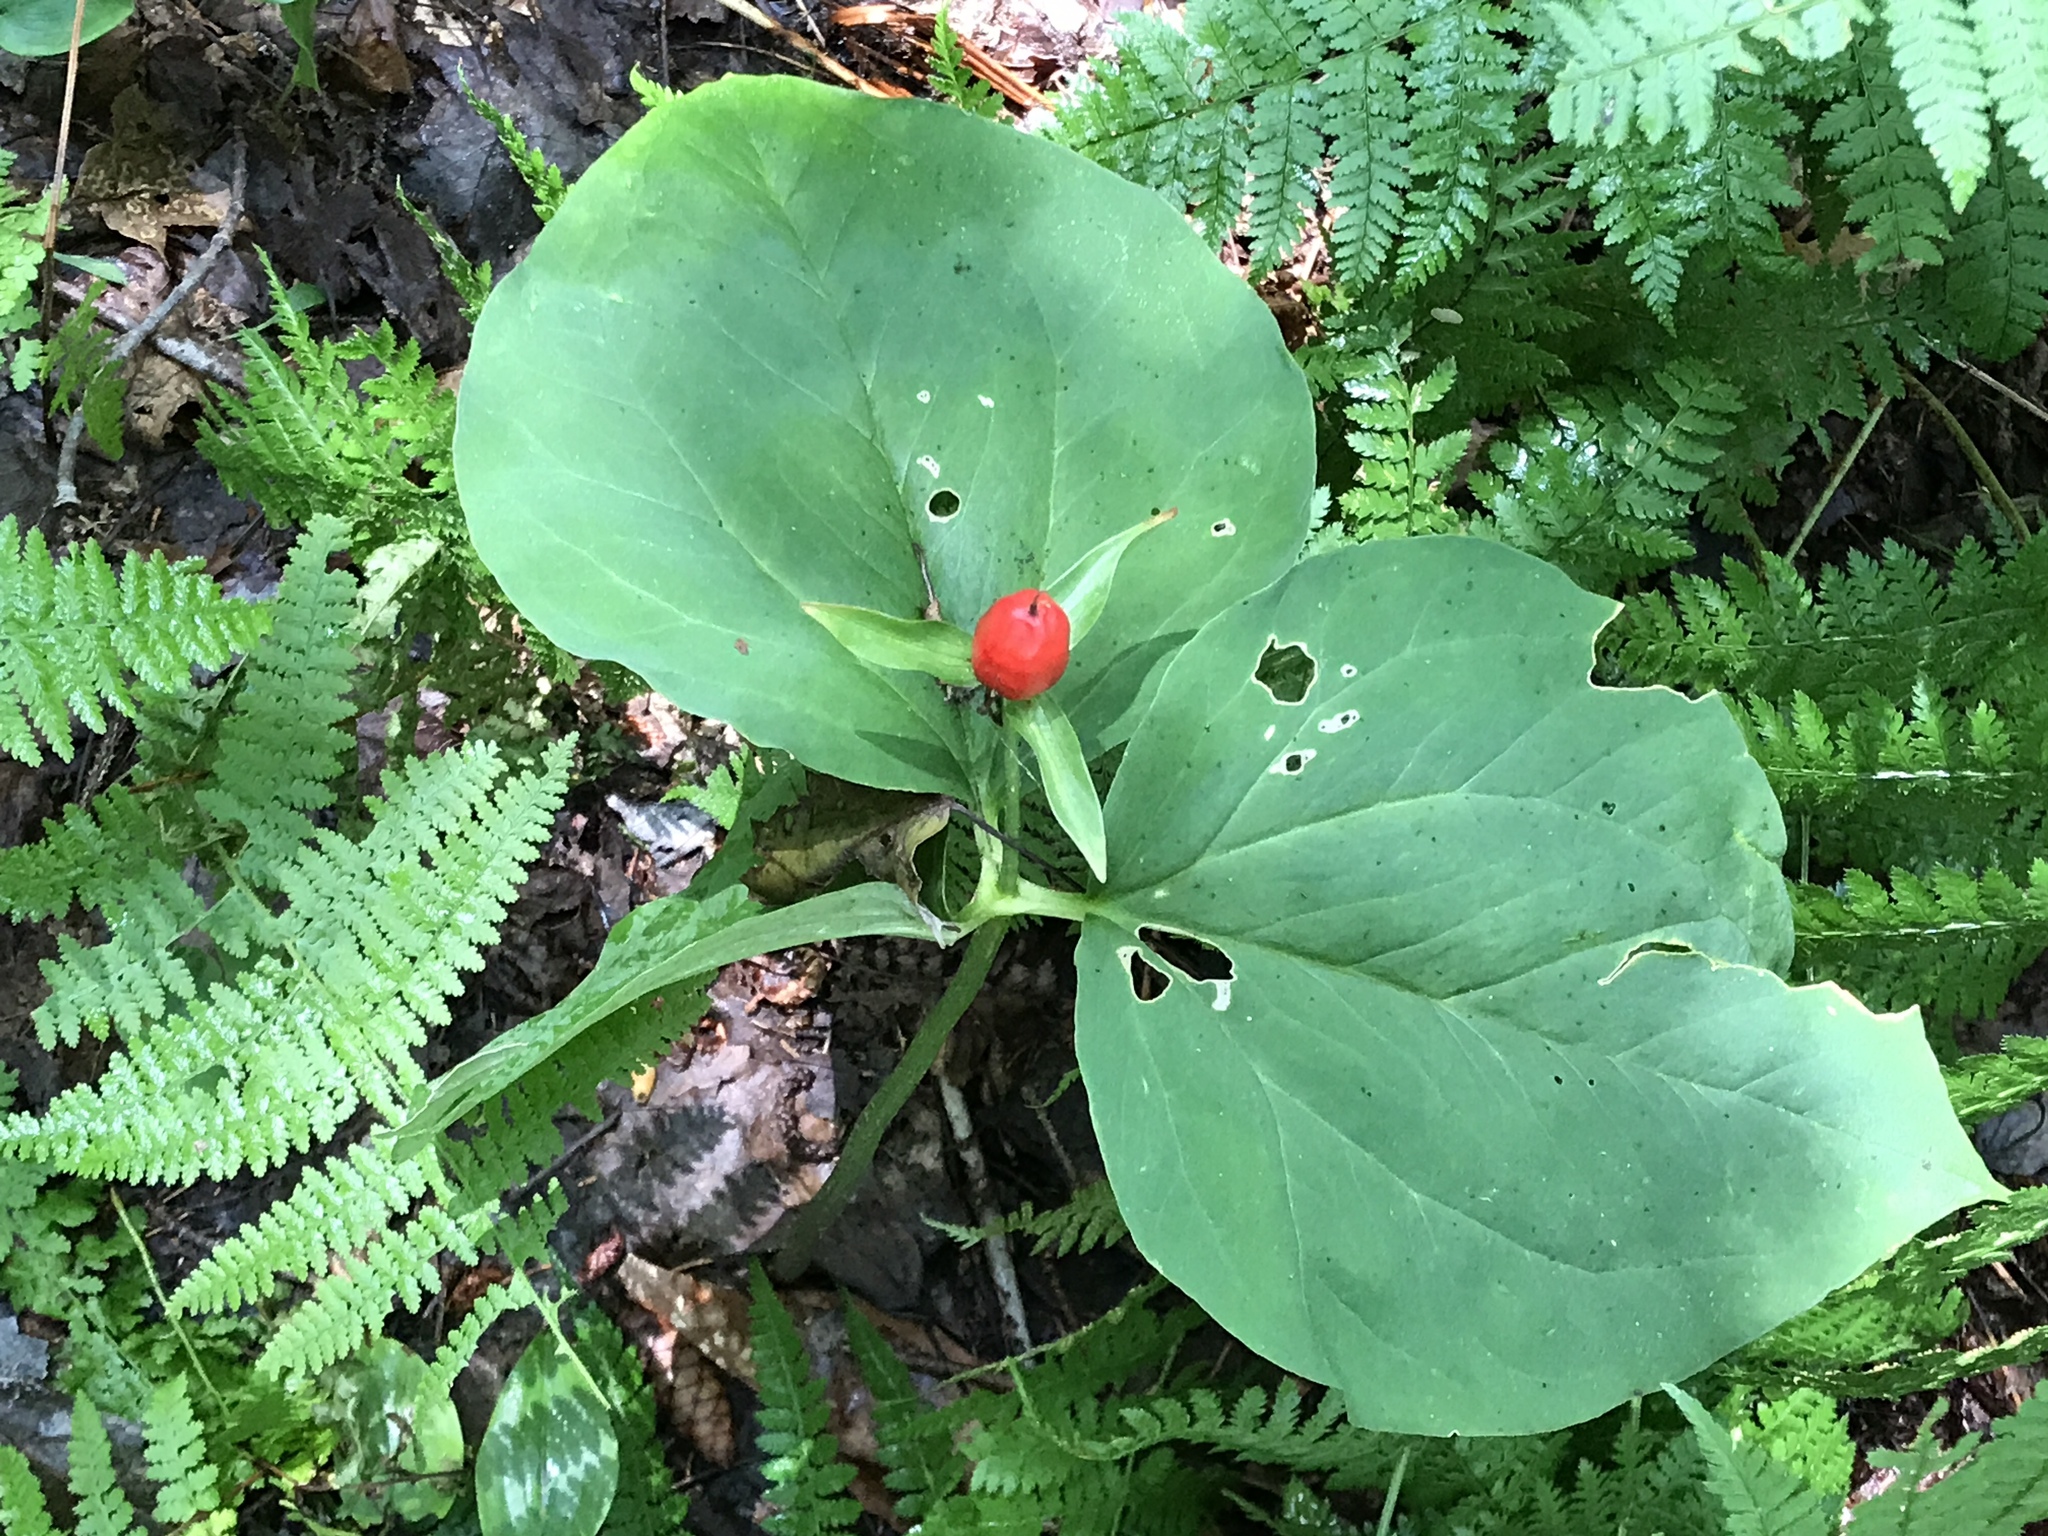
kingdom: Plantae
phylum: Tracheophyta
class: Liliopsida
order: Liliales
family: Melanthiaceae
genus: Trillium
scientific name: Trillium undulatum
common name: Paint trillium
